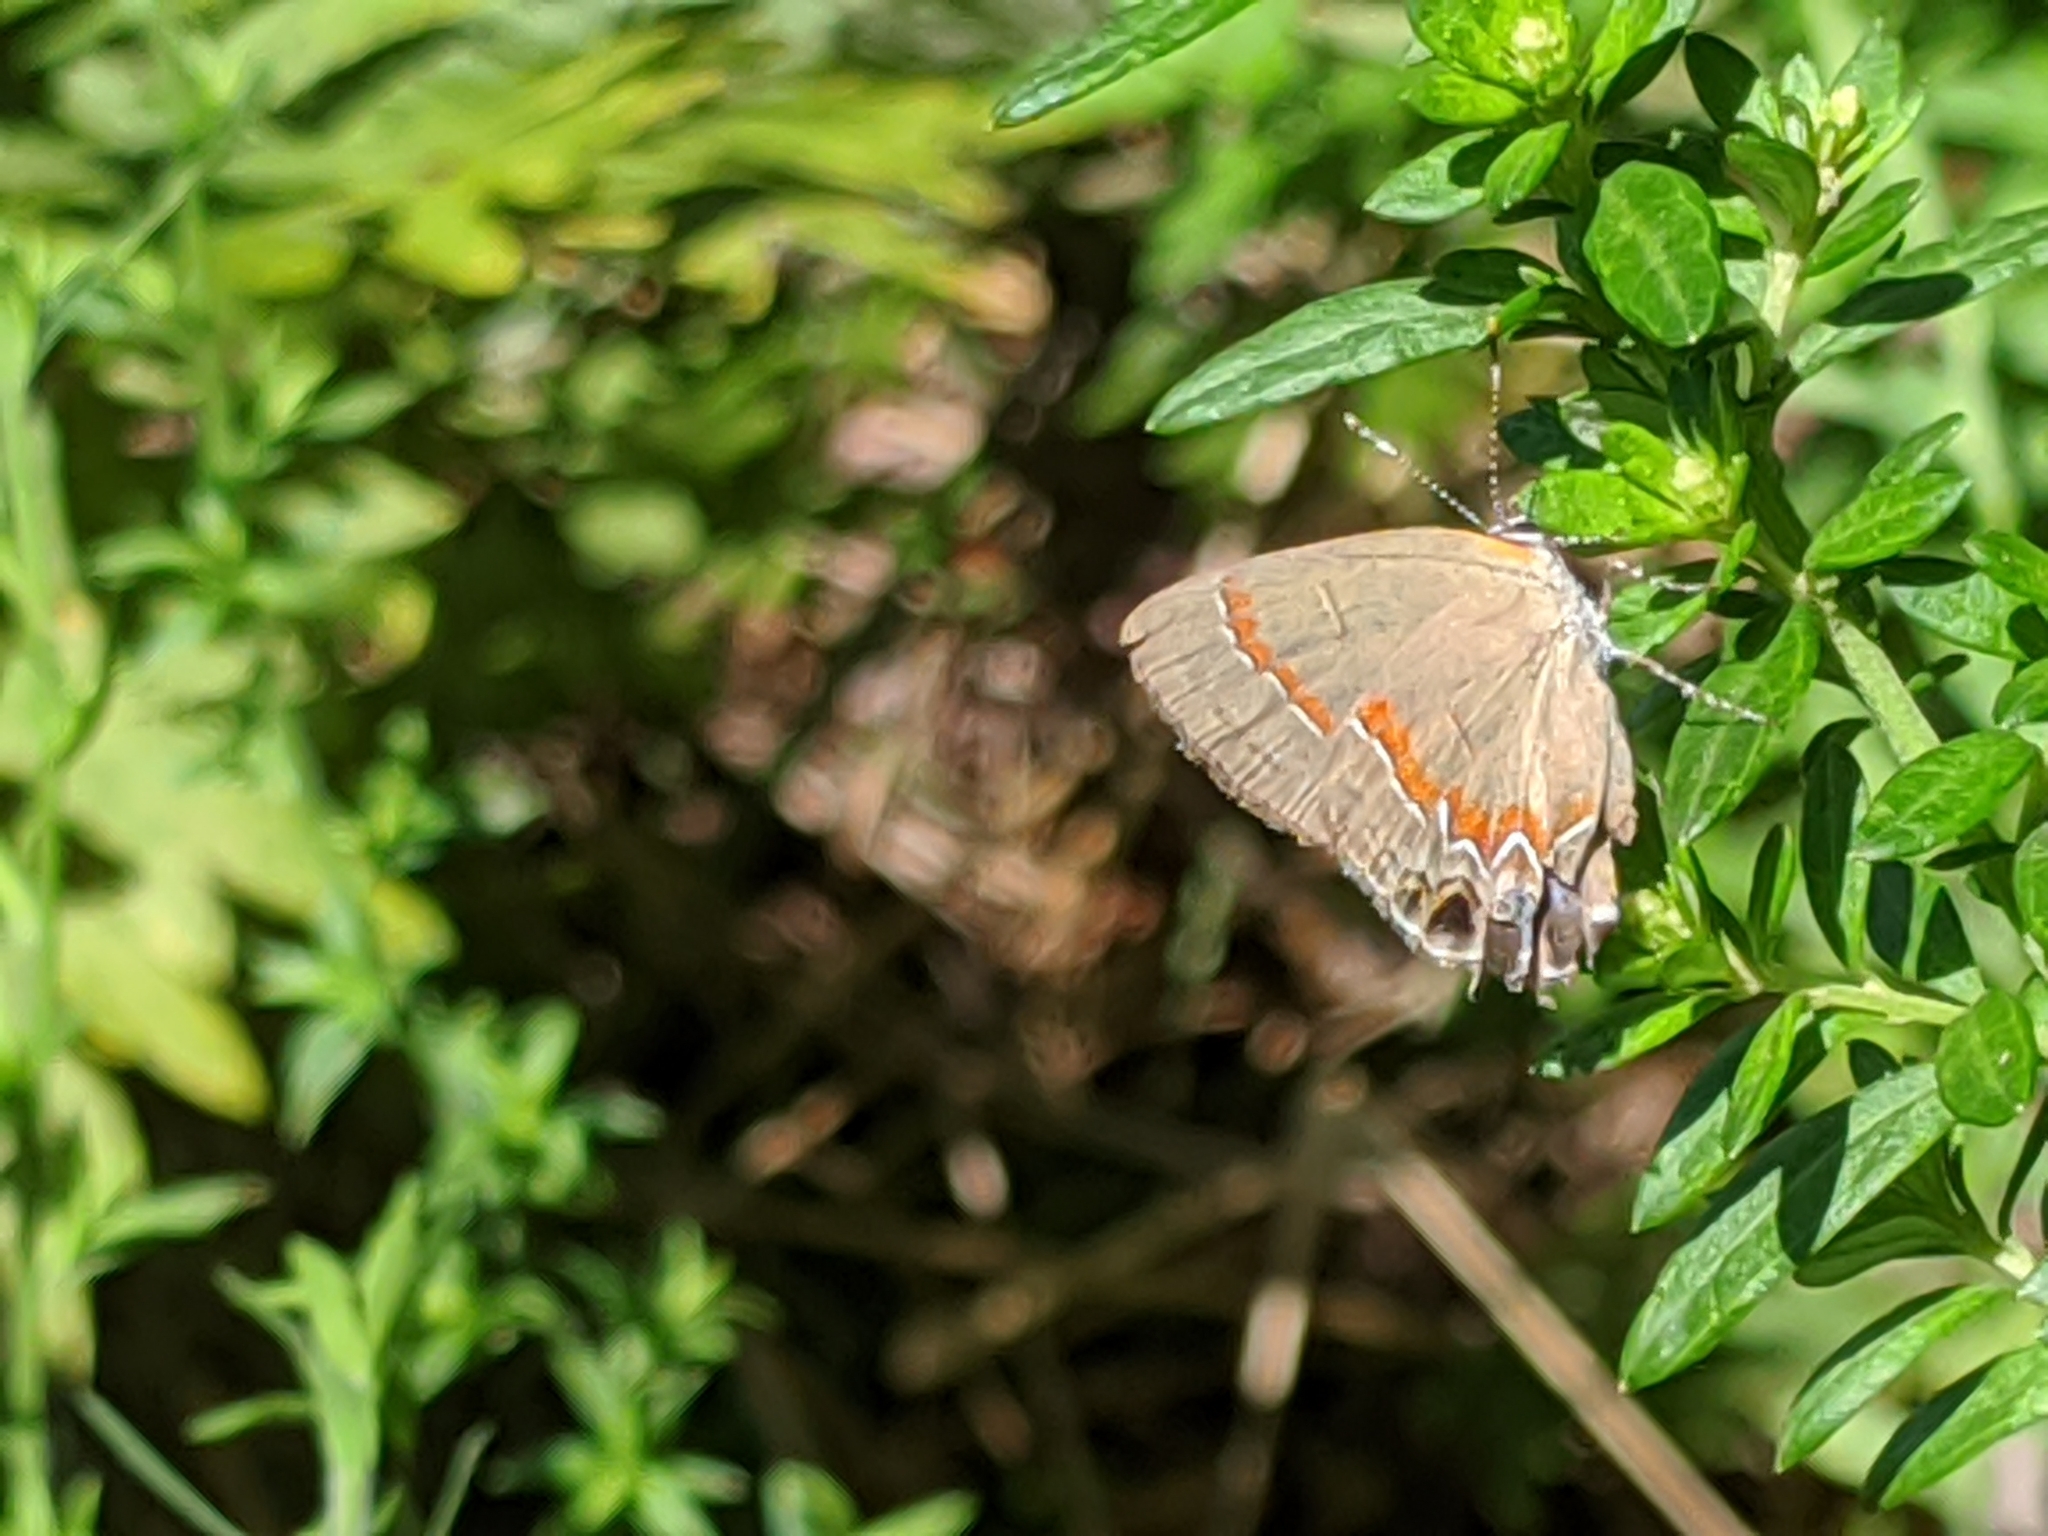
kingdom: Animalia
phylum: Arthropoda
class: Insecta
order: Lepidoptera
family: Lycaenidae
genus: Calycopis
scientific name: Calycopis cecrops
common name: Red-banded hairstreak
